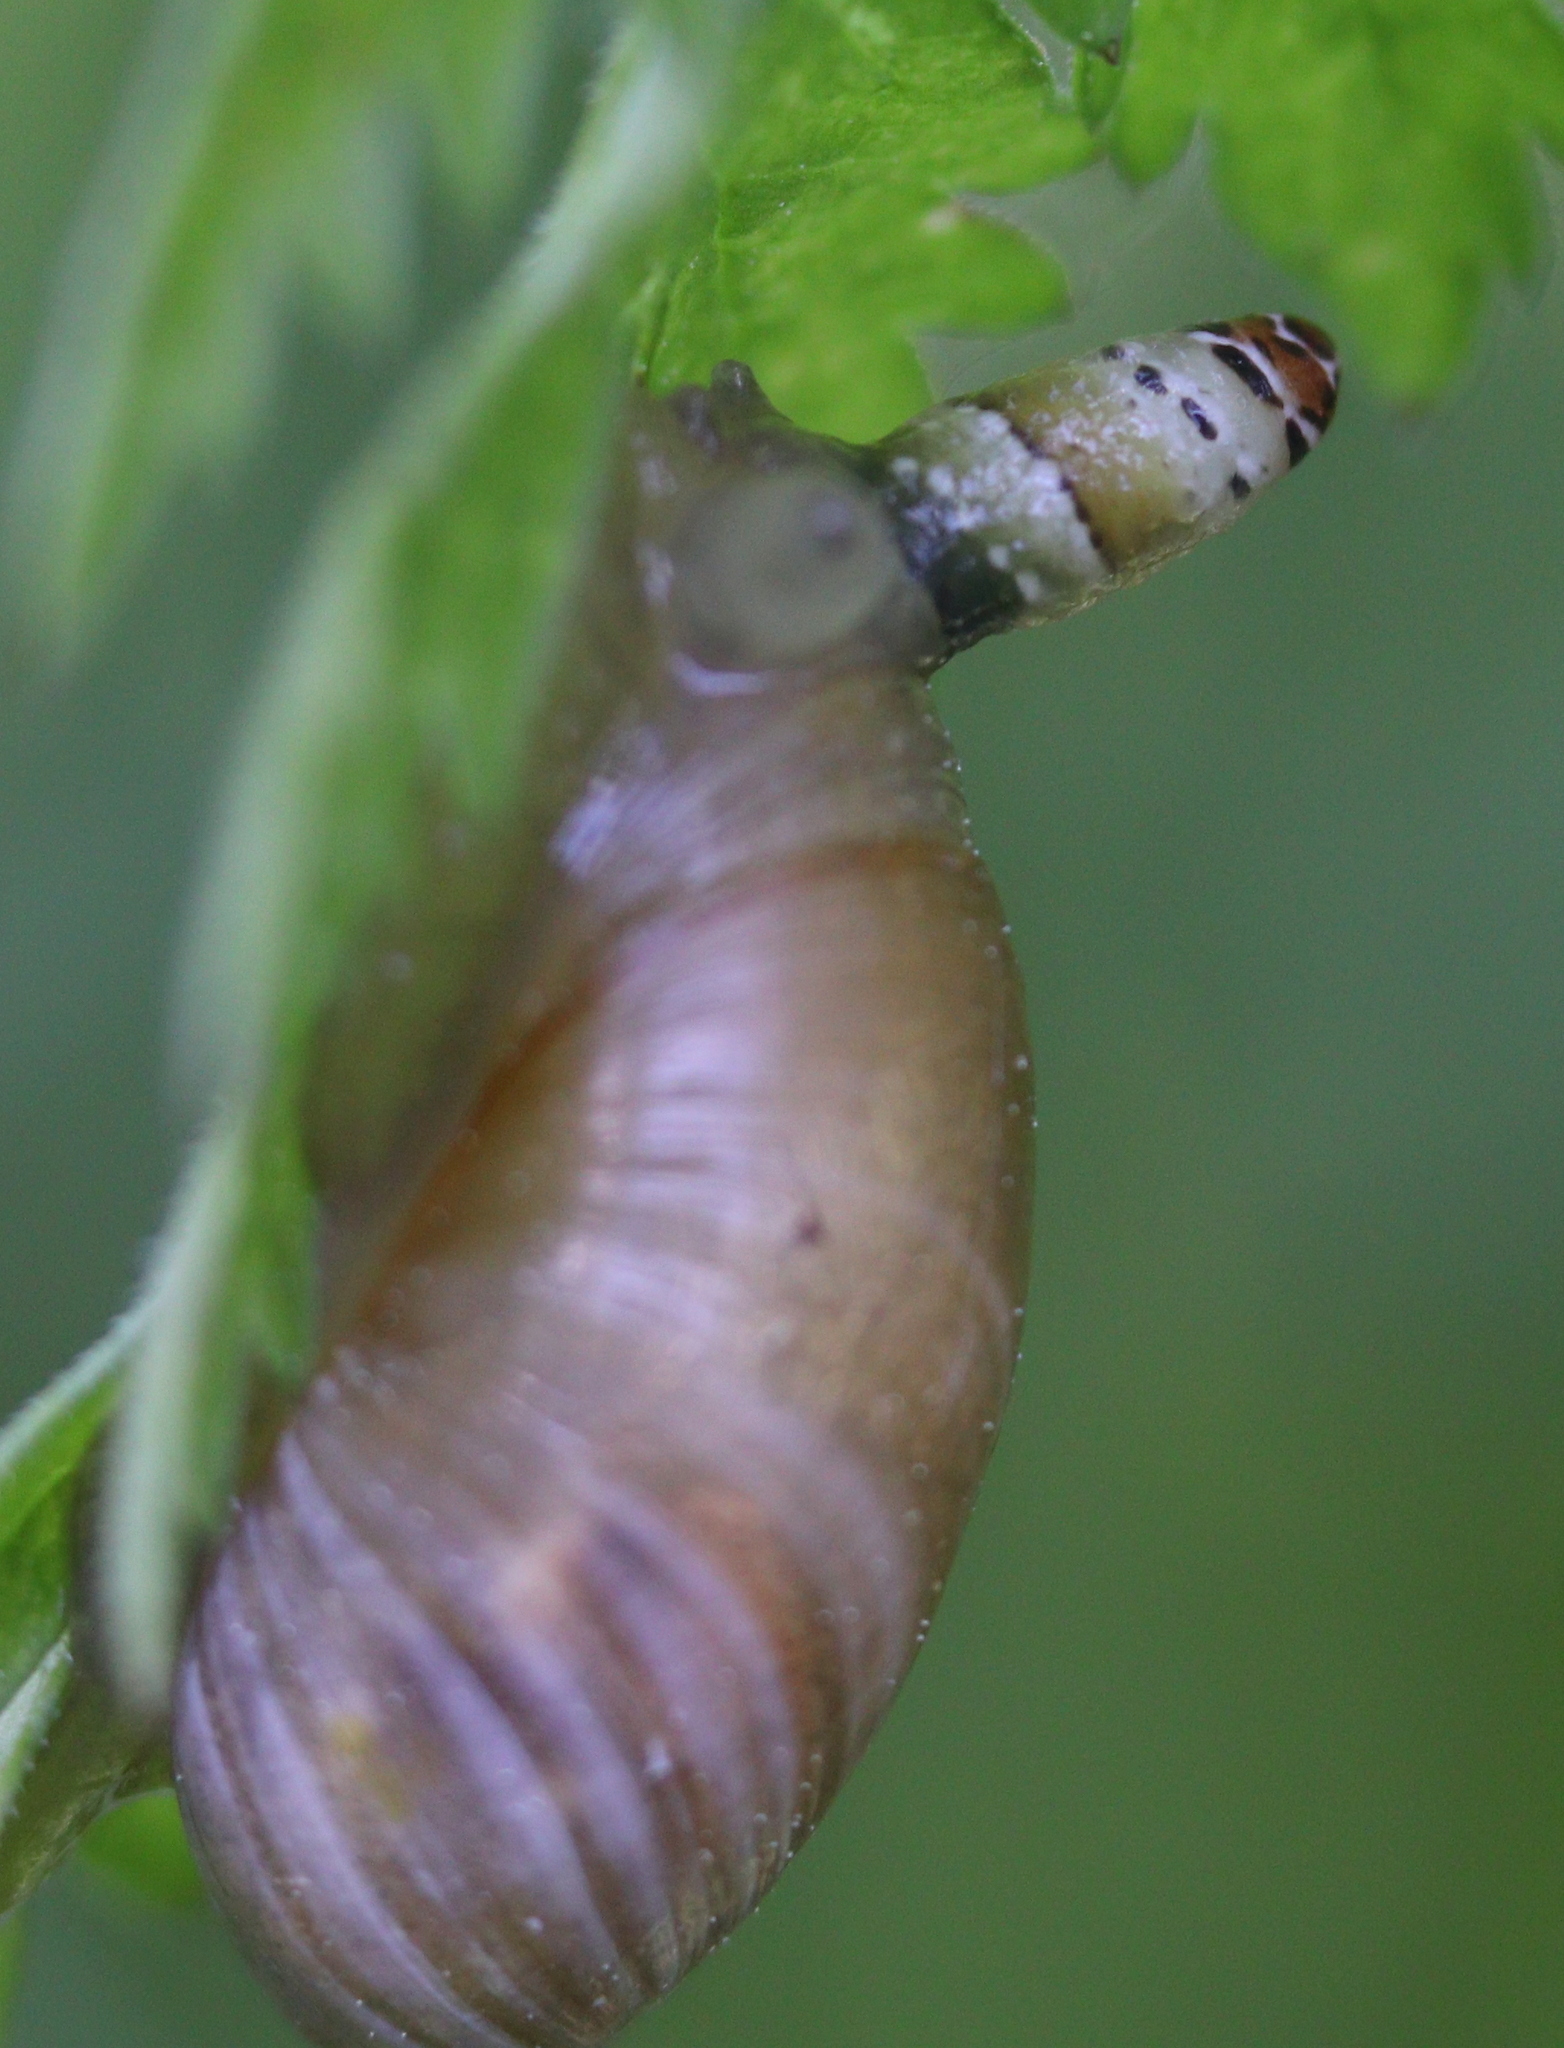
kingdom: Animalia
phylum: Platyhelminthes
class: Trematoda
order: Diplostomida
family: Leucochloridiidae
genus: Leucochloridium
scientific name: Leucochloridium paradoxum
